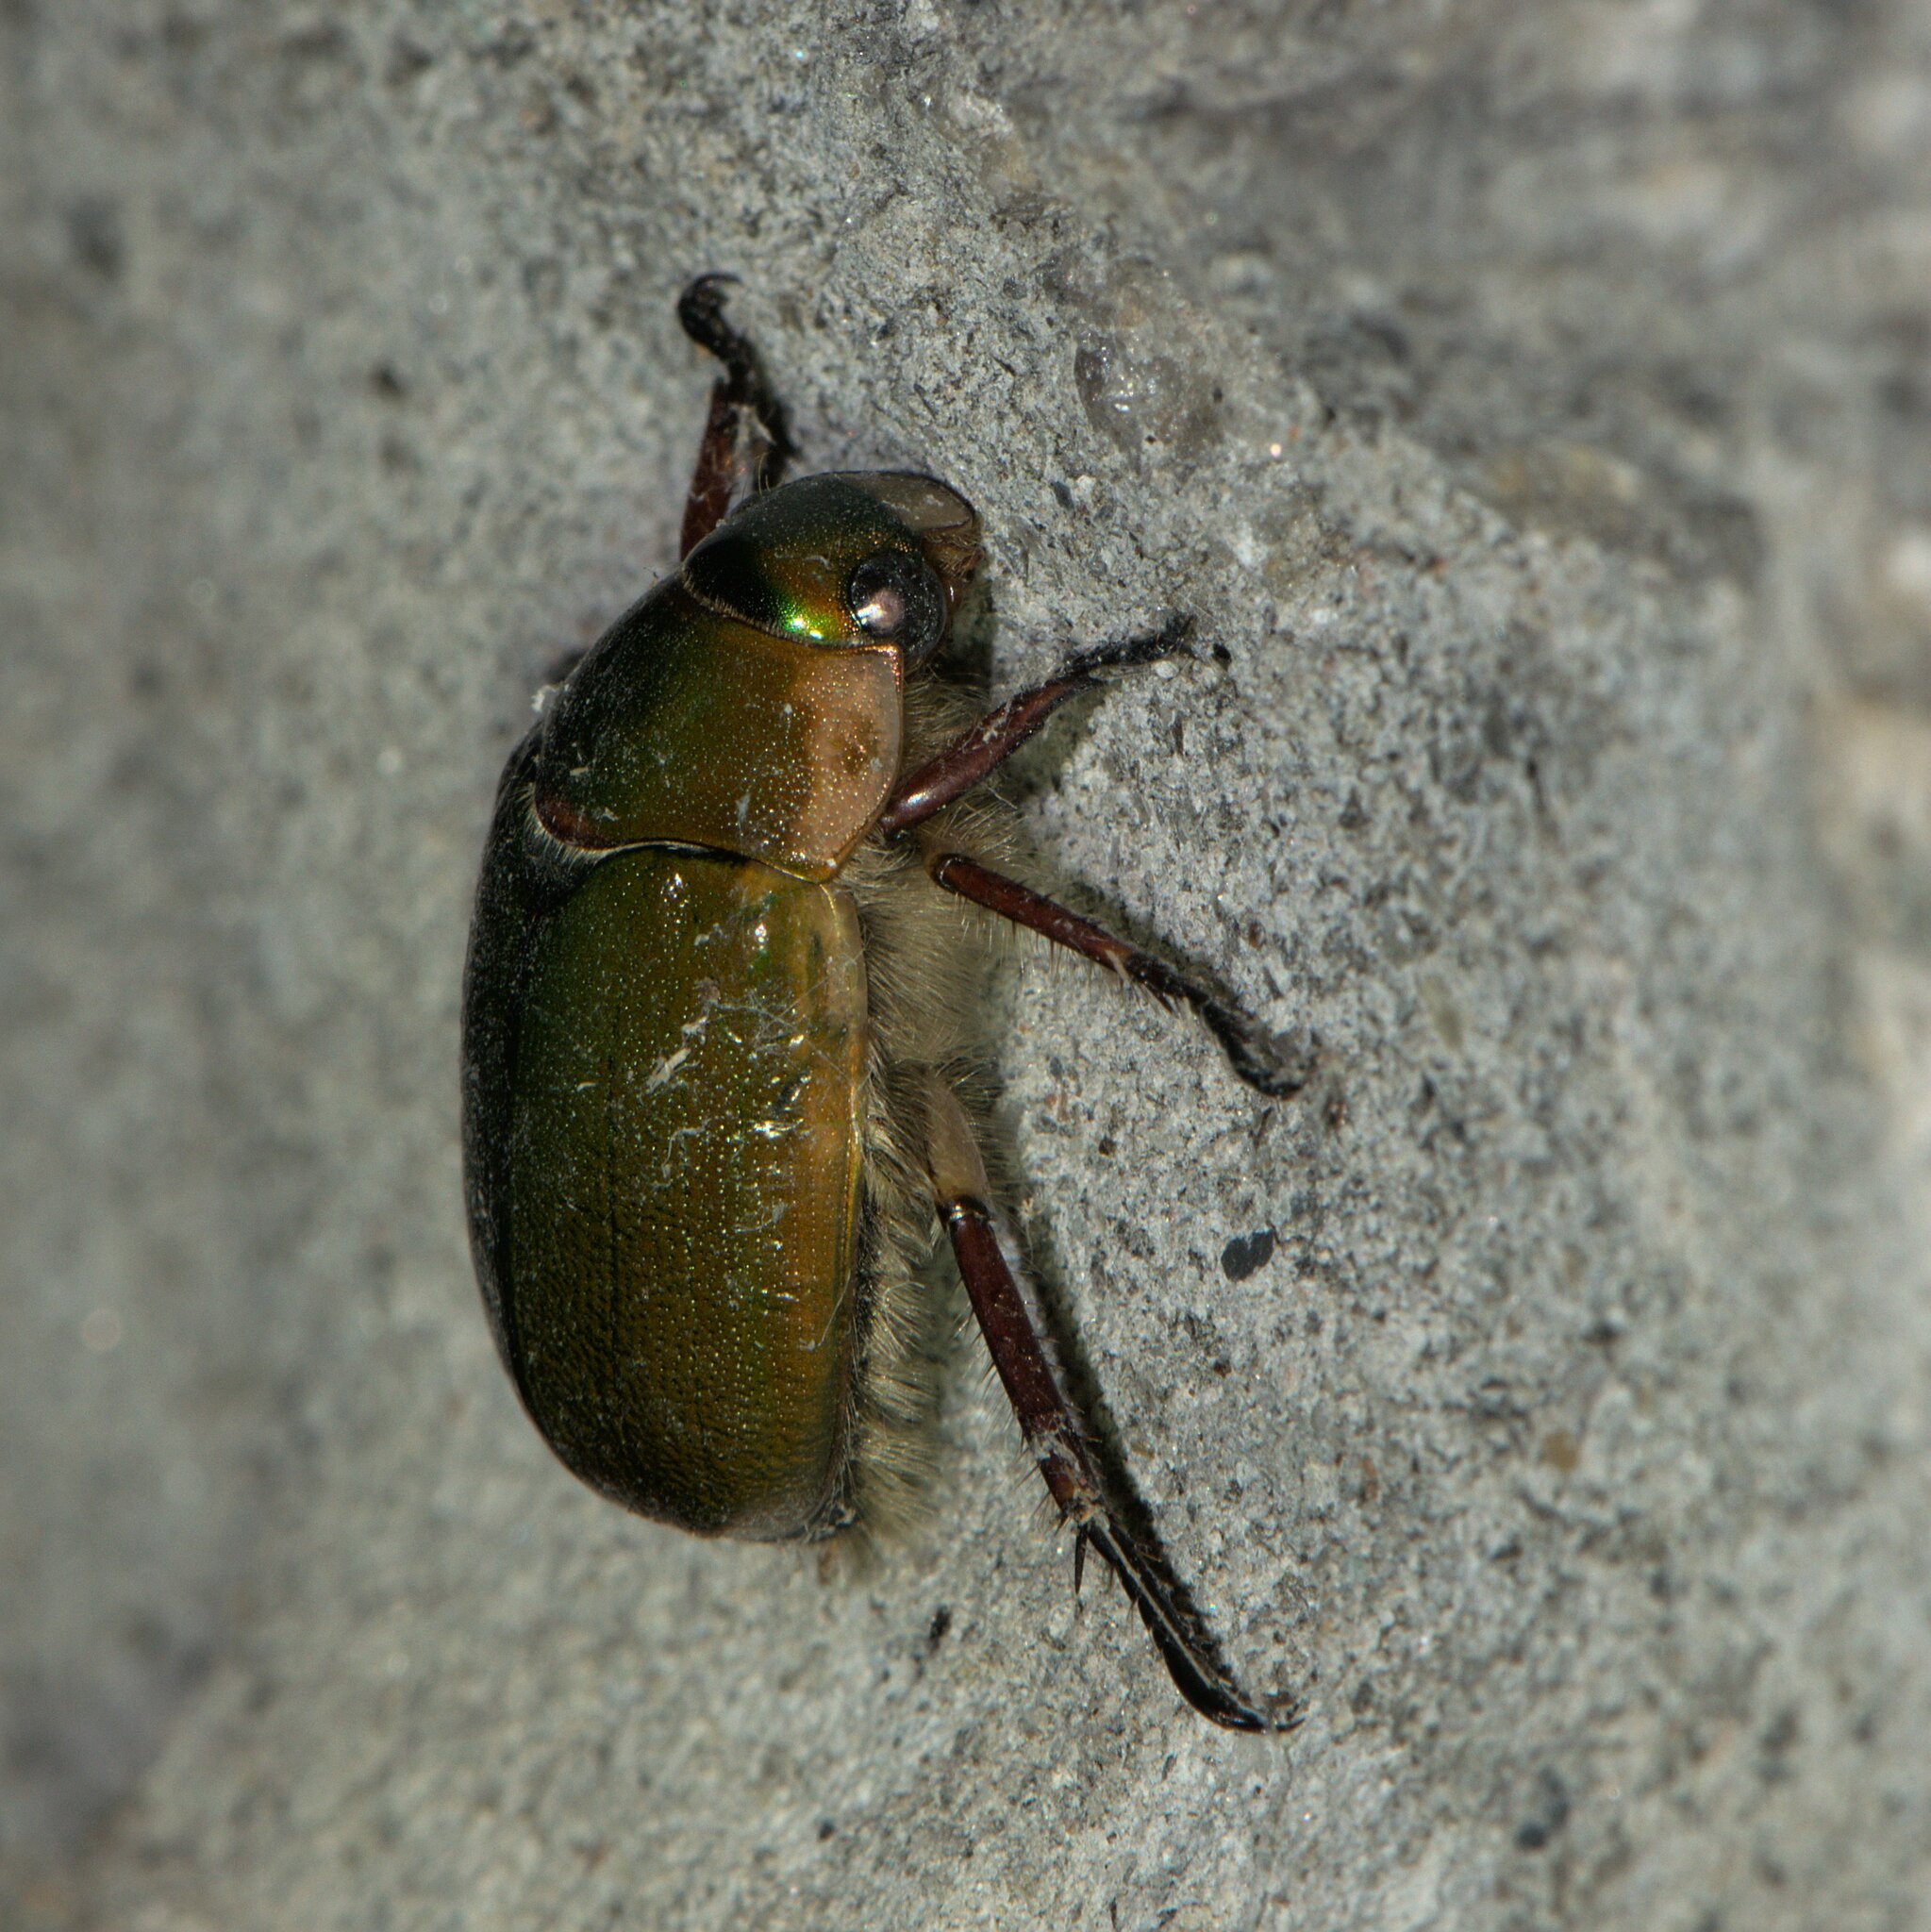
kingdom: Animalia
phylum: Arthropoda
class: Insecta
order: Coleoptera
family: Scarabaeidae
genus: Mimela
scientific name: Mimela passerinii
